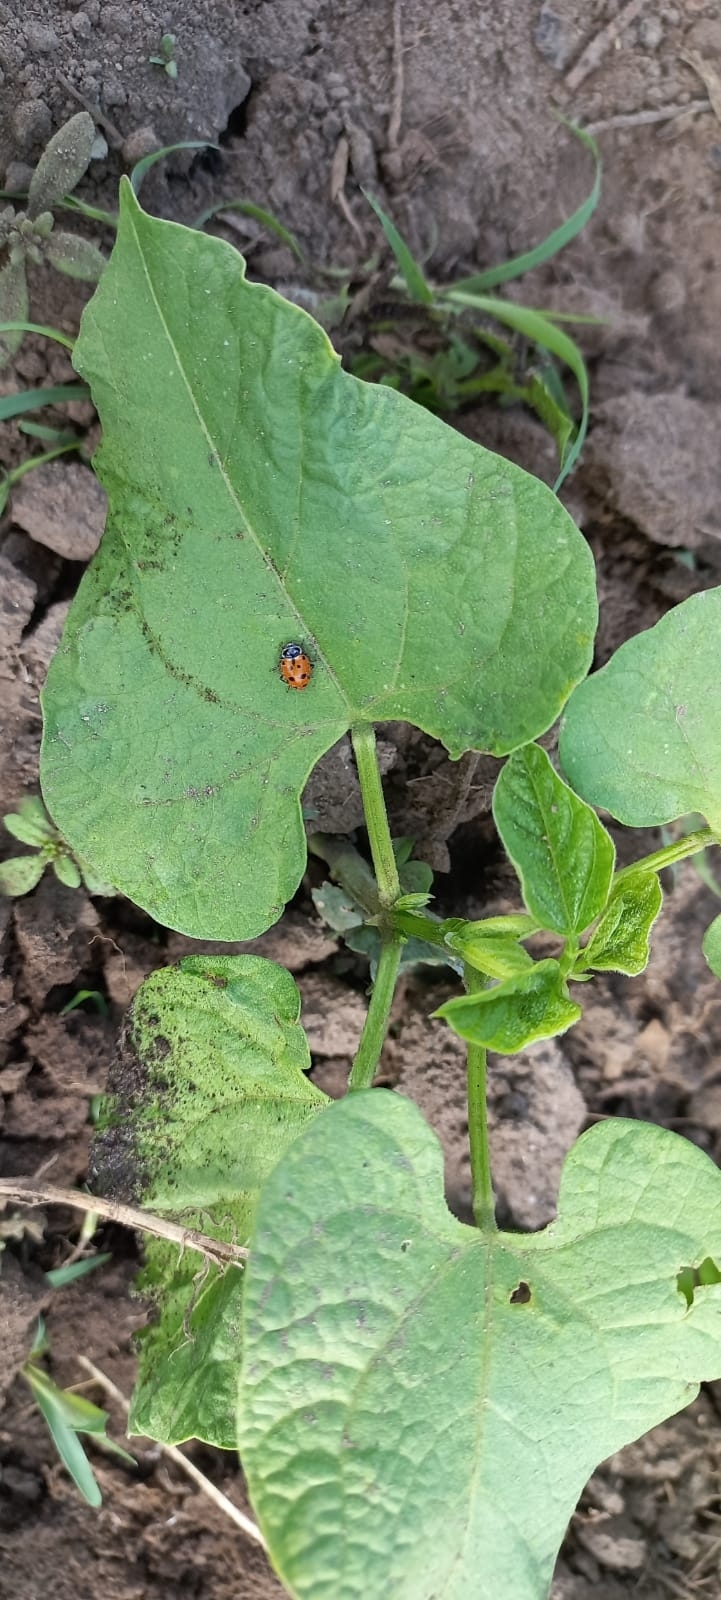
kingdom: Animalia
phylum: Arthropoda
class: Insecta
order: Coleoptera
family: Coccinellidae
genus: Hippodamia
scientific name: Hippodamia convergens
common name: Convergent lady beetle
